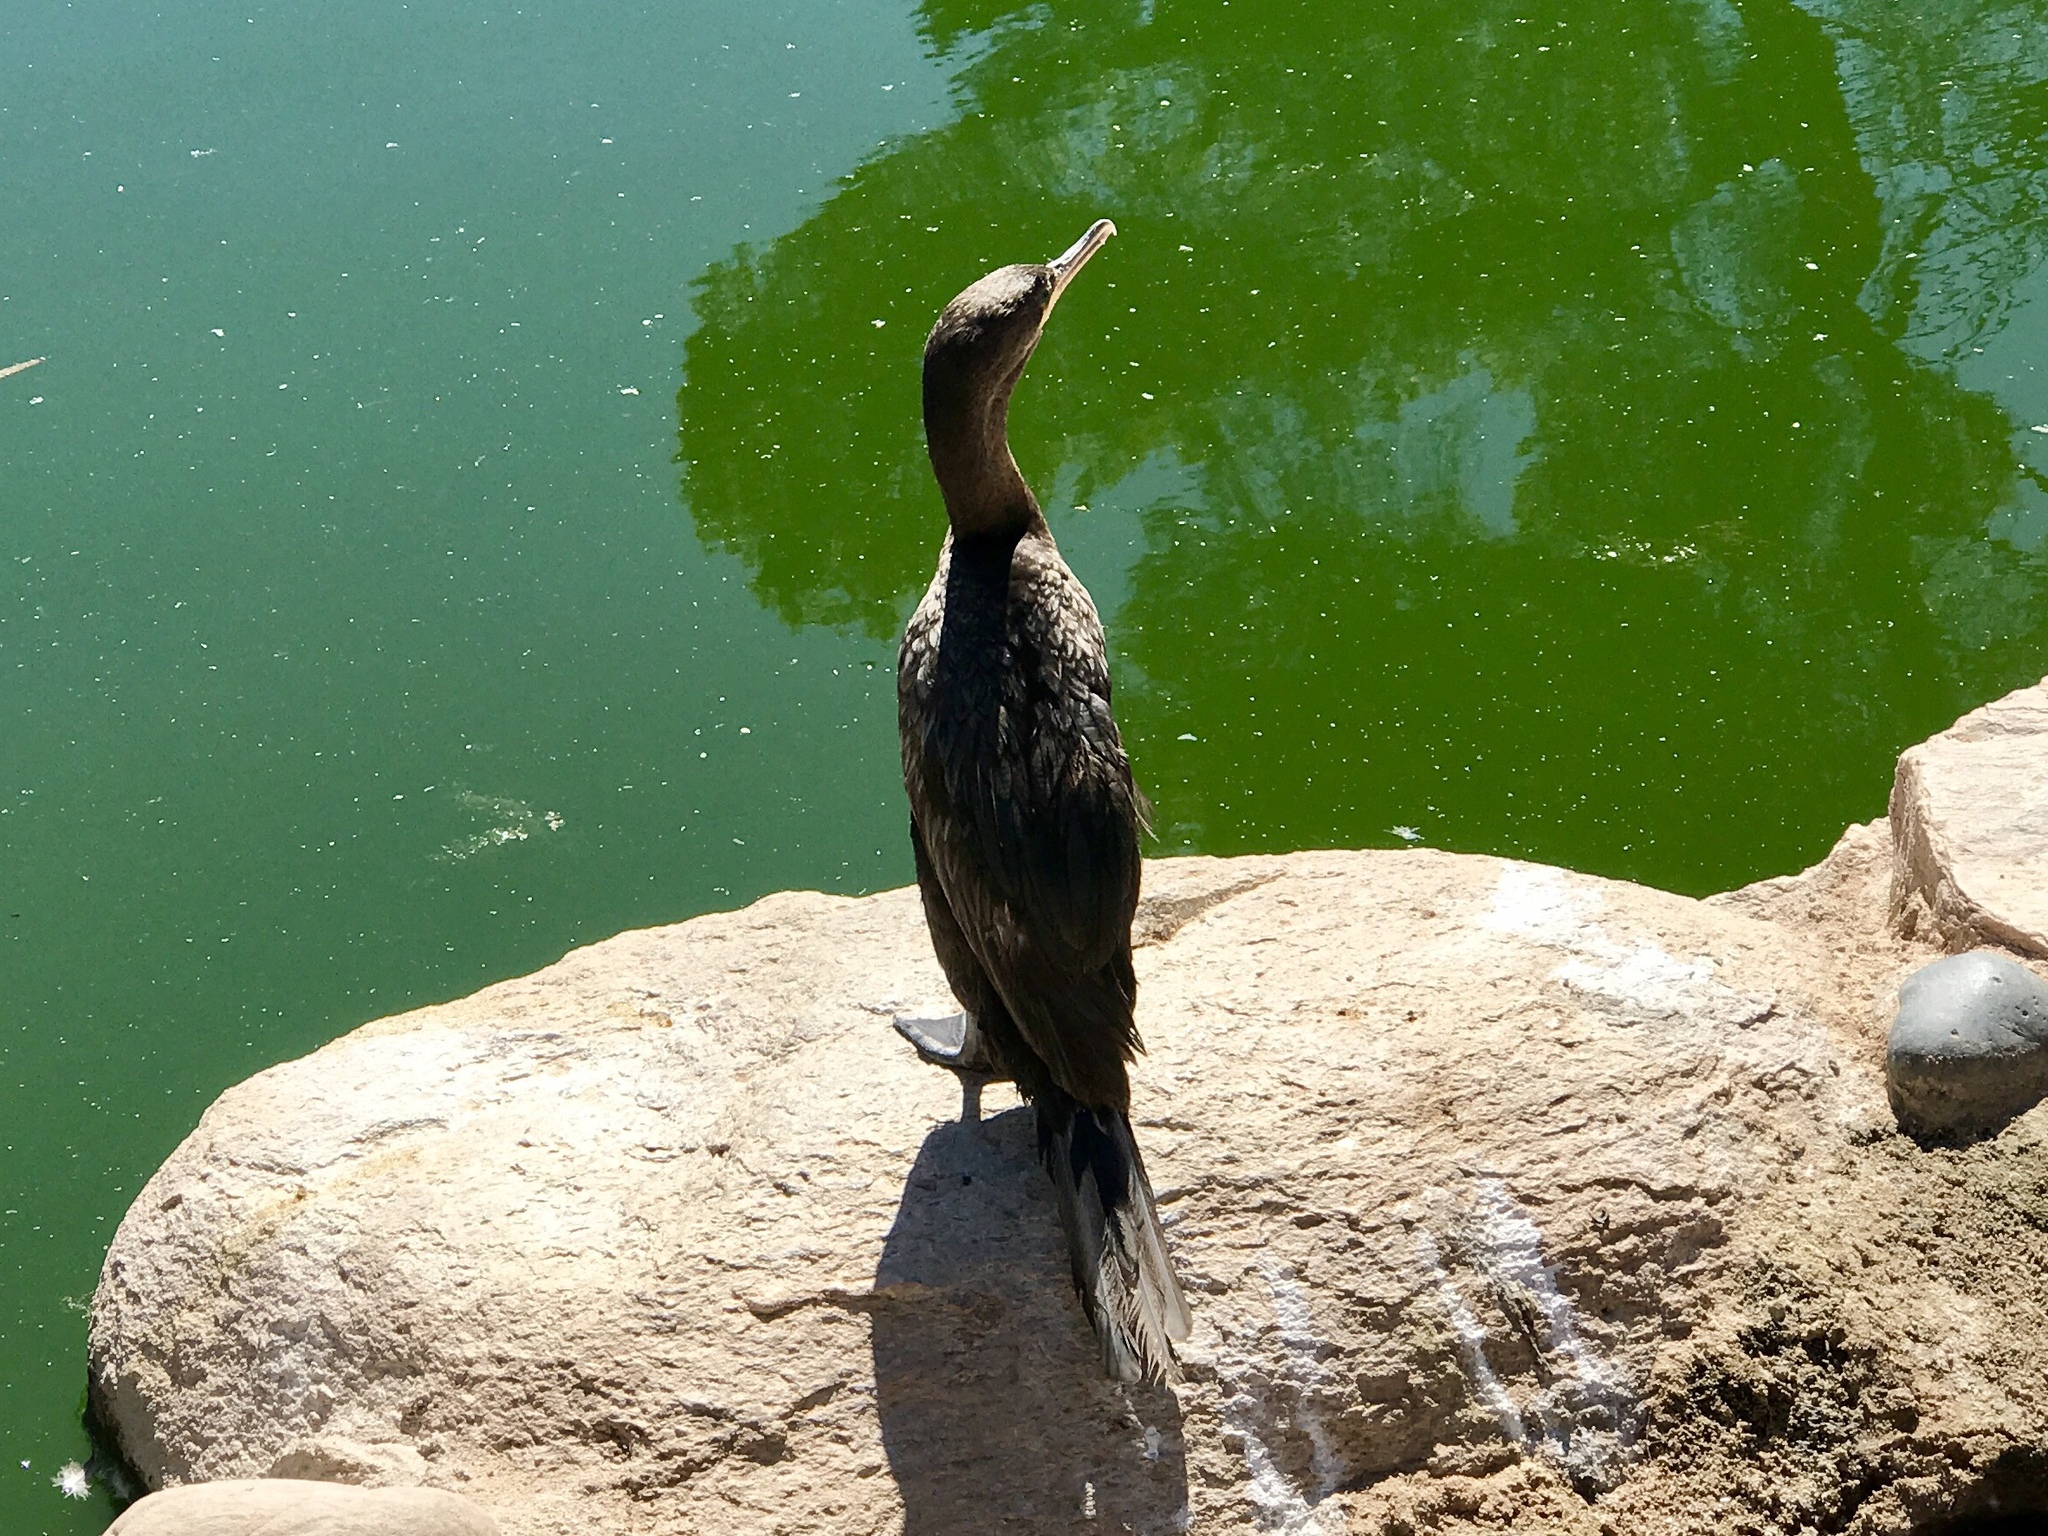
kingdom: Animalia
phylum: Chordata
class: Aves
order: Suliformes
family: Phalacrocoracidae
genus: Phalacrocorax
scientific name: Phalacrocorax brasilianus
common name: Neotropic cormorant
